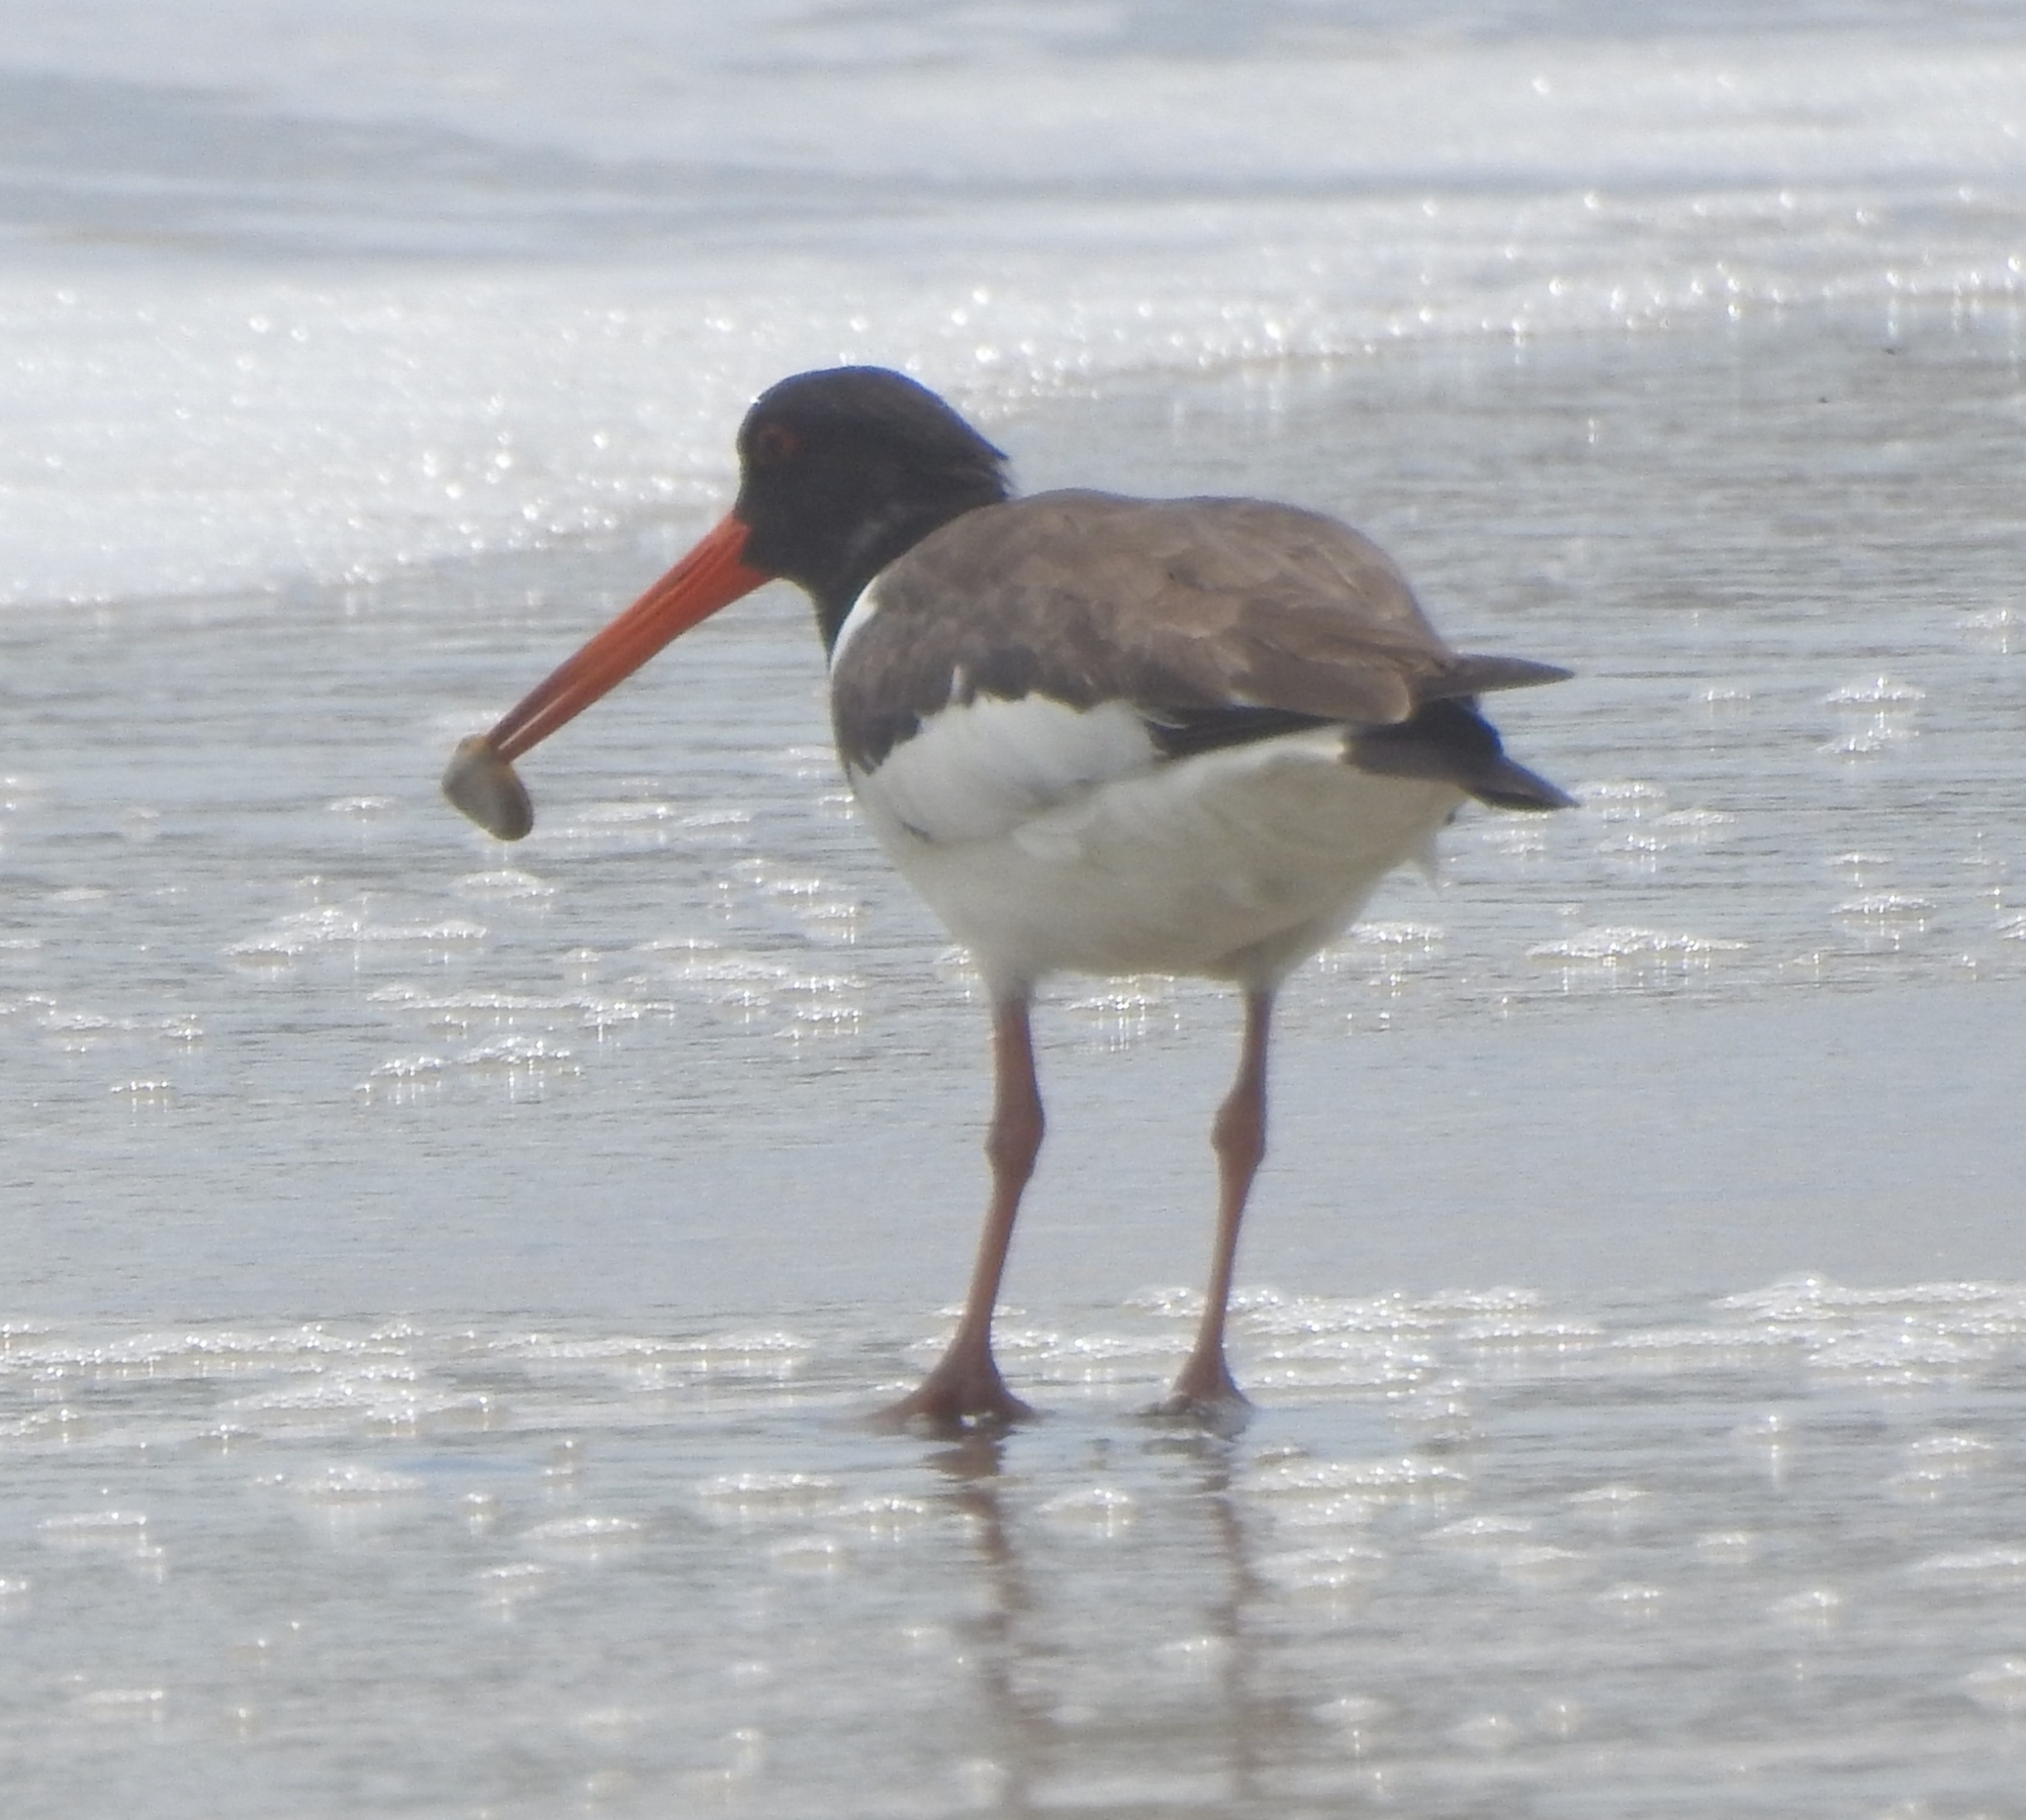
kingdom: Animalia
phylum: Chordata
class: Aves
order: Charadriiformes
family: Haematopodidae
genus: Haematopus
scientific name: Haematopus ostralegus
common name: Eurasian oystercatcher
